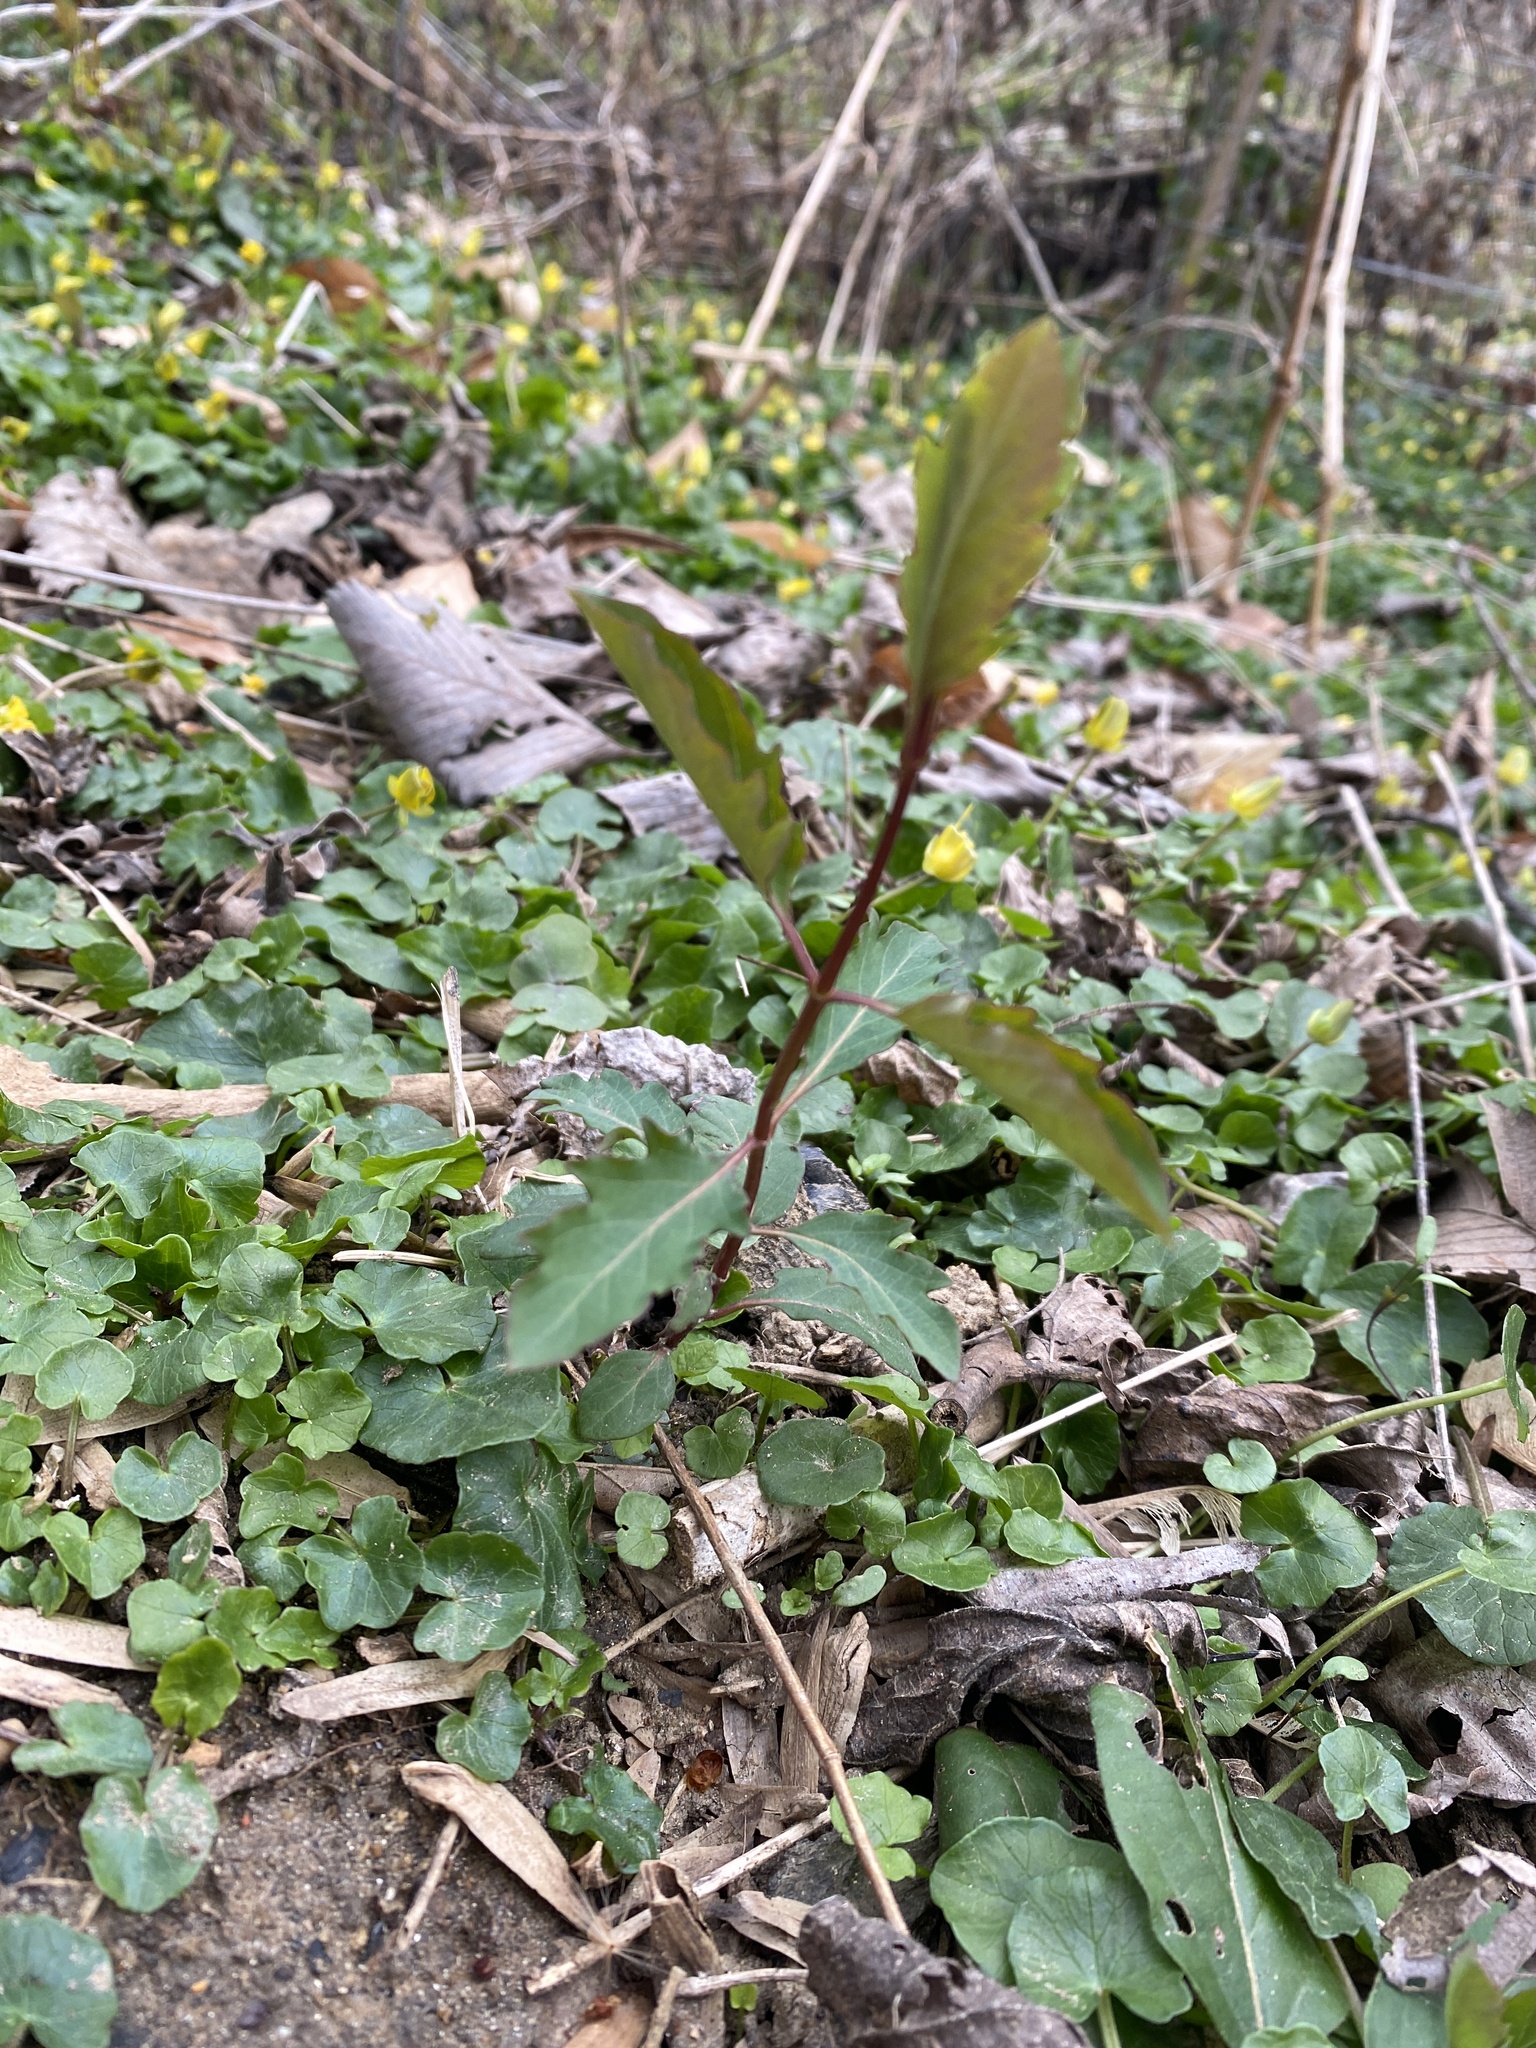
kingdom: Plantae
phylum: Tracheophyta
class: Magnoliopsida
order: Dipsacales
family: Caprifoliaceae
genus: Lonicera
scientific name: Lonicera japonica
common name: Japanese honeysuckle
